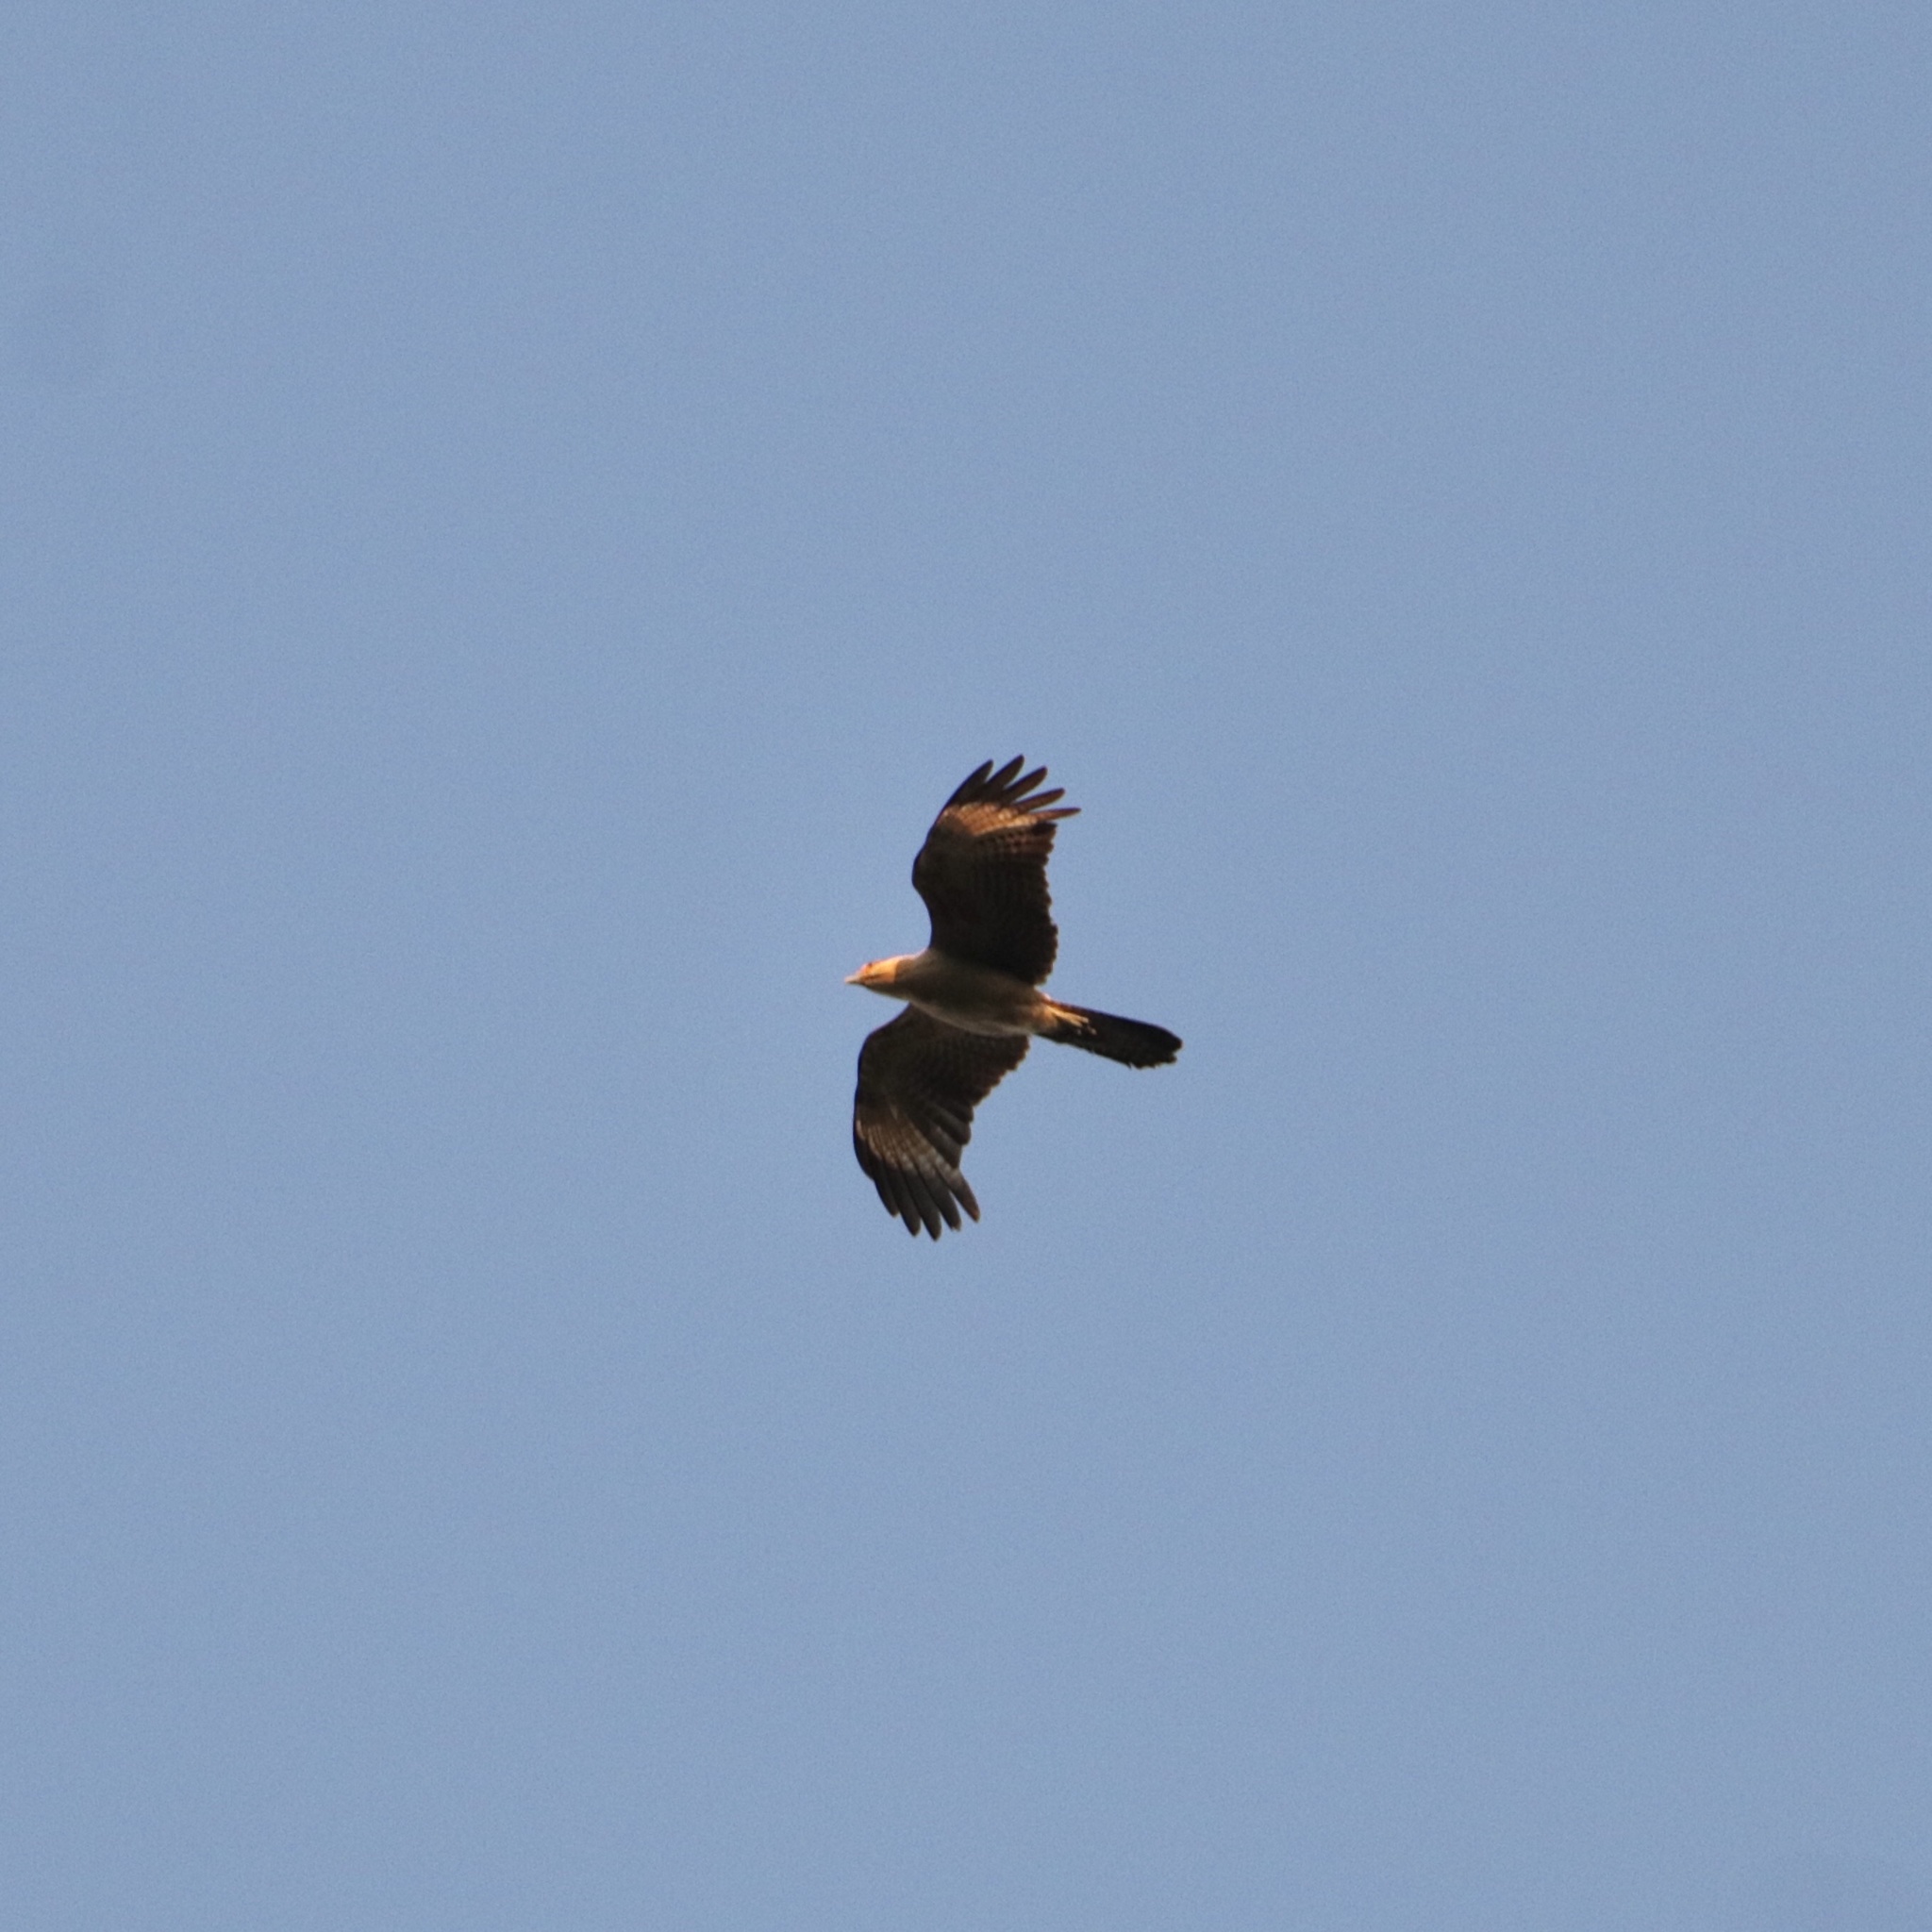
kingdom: Animalia
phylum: Chordata
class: Aves
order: Falconiformes
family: Falconidae
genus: Daptrius
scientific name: Daptrius
